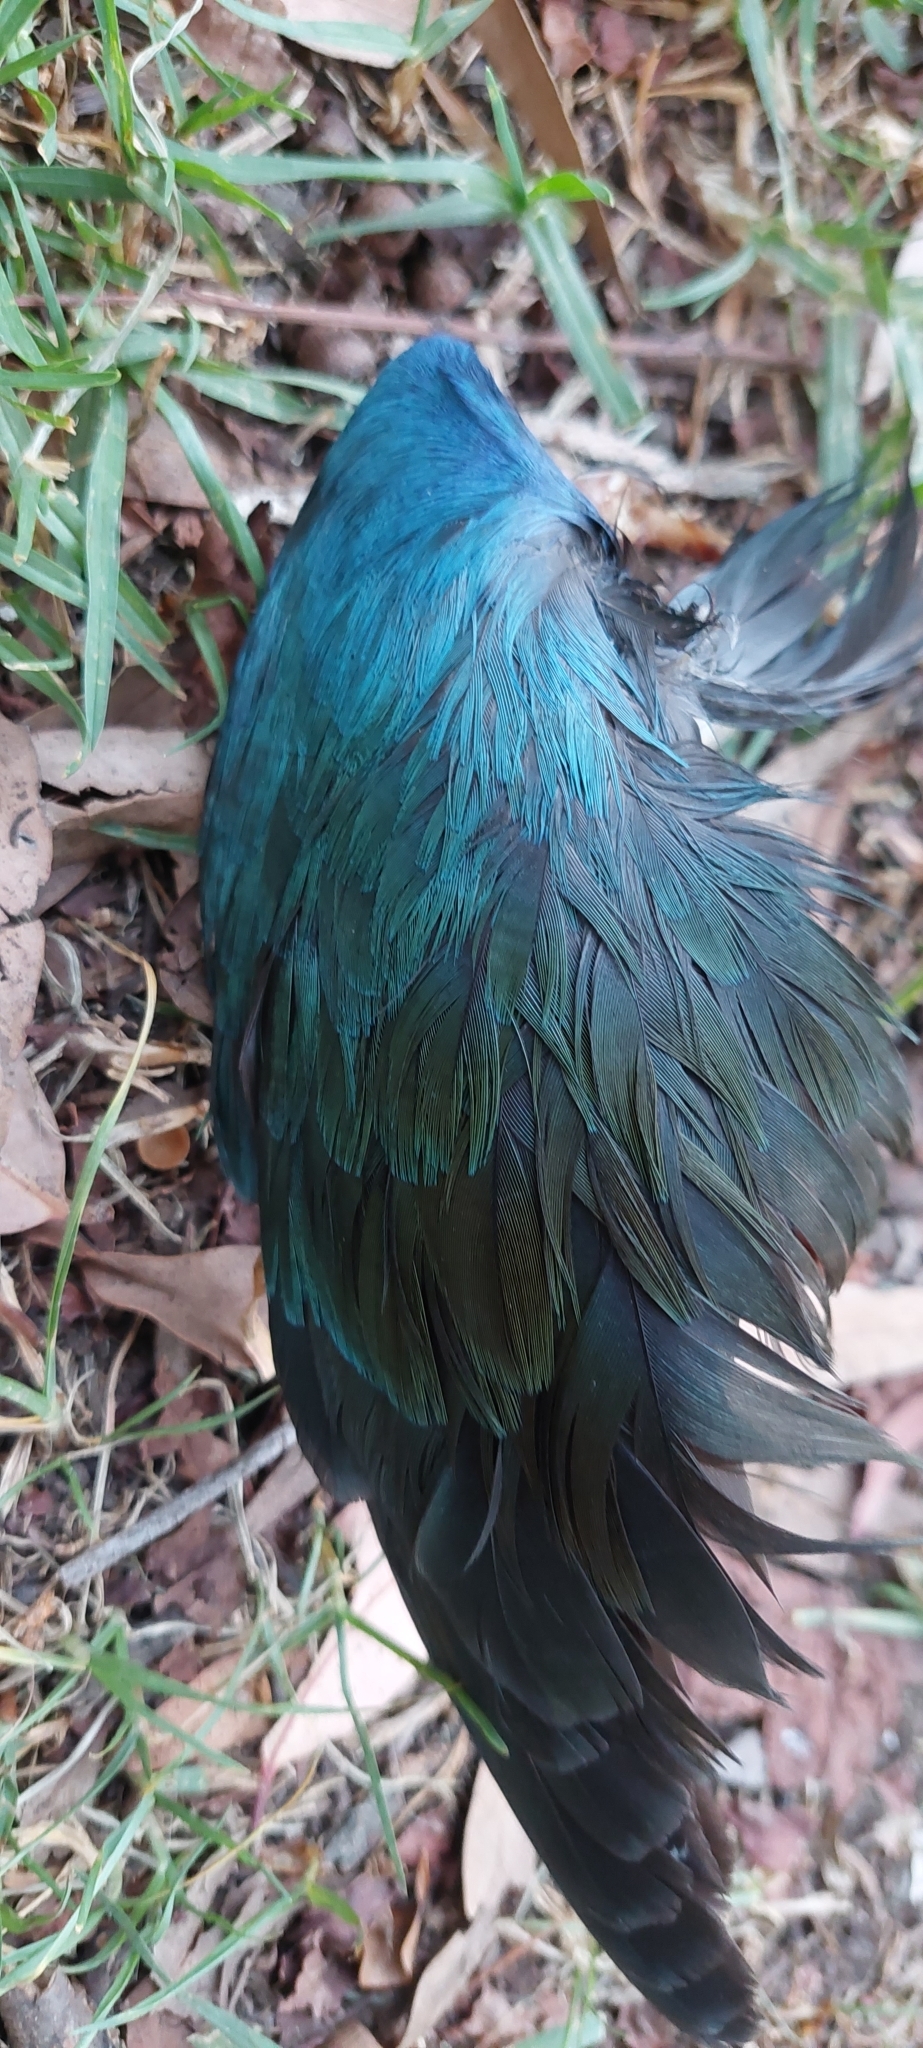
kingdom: Animalia
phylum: Chordata
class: Aves
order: Gruiformes
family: Rallidae
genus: Porphyrio
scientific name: Porphyrio martinica
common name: Purple gallinule
